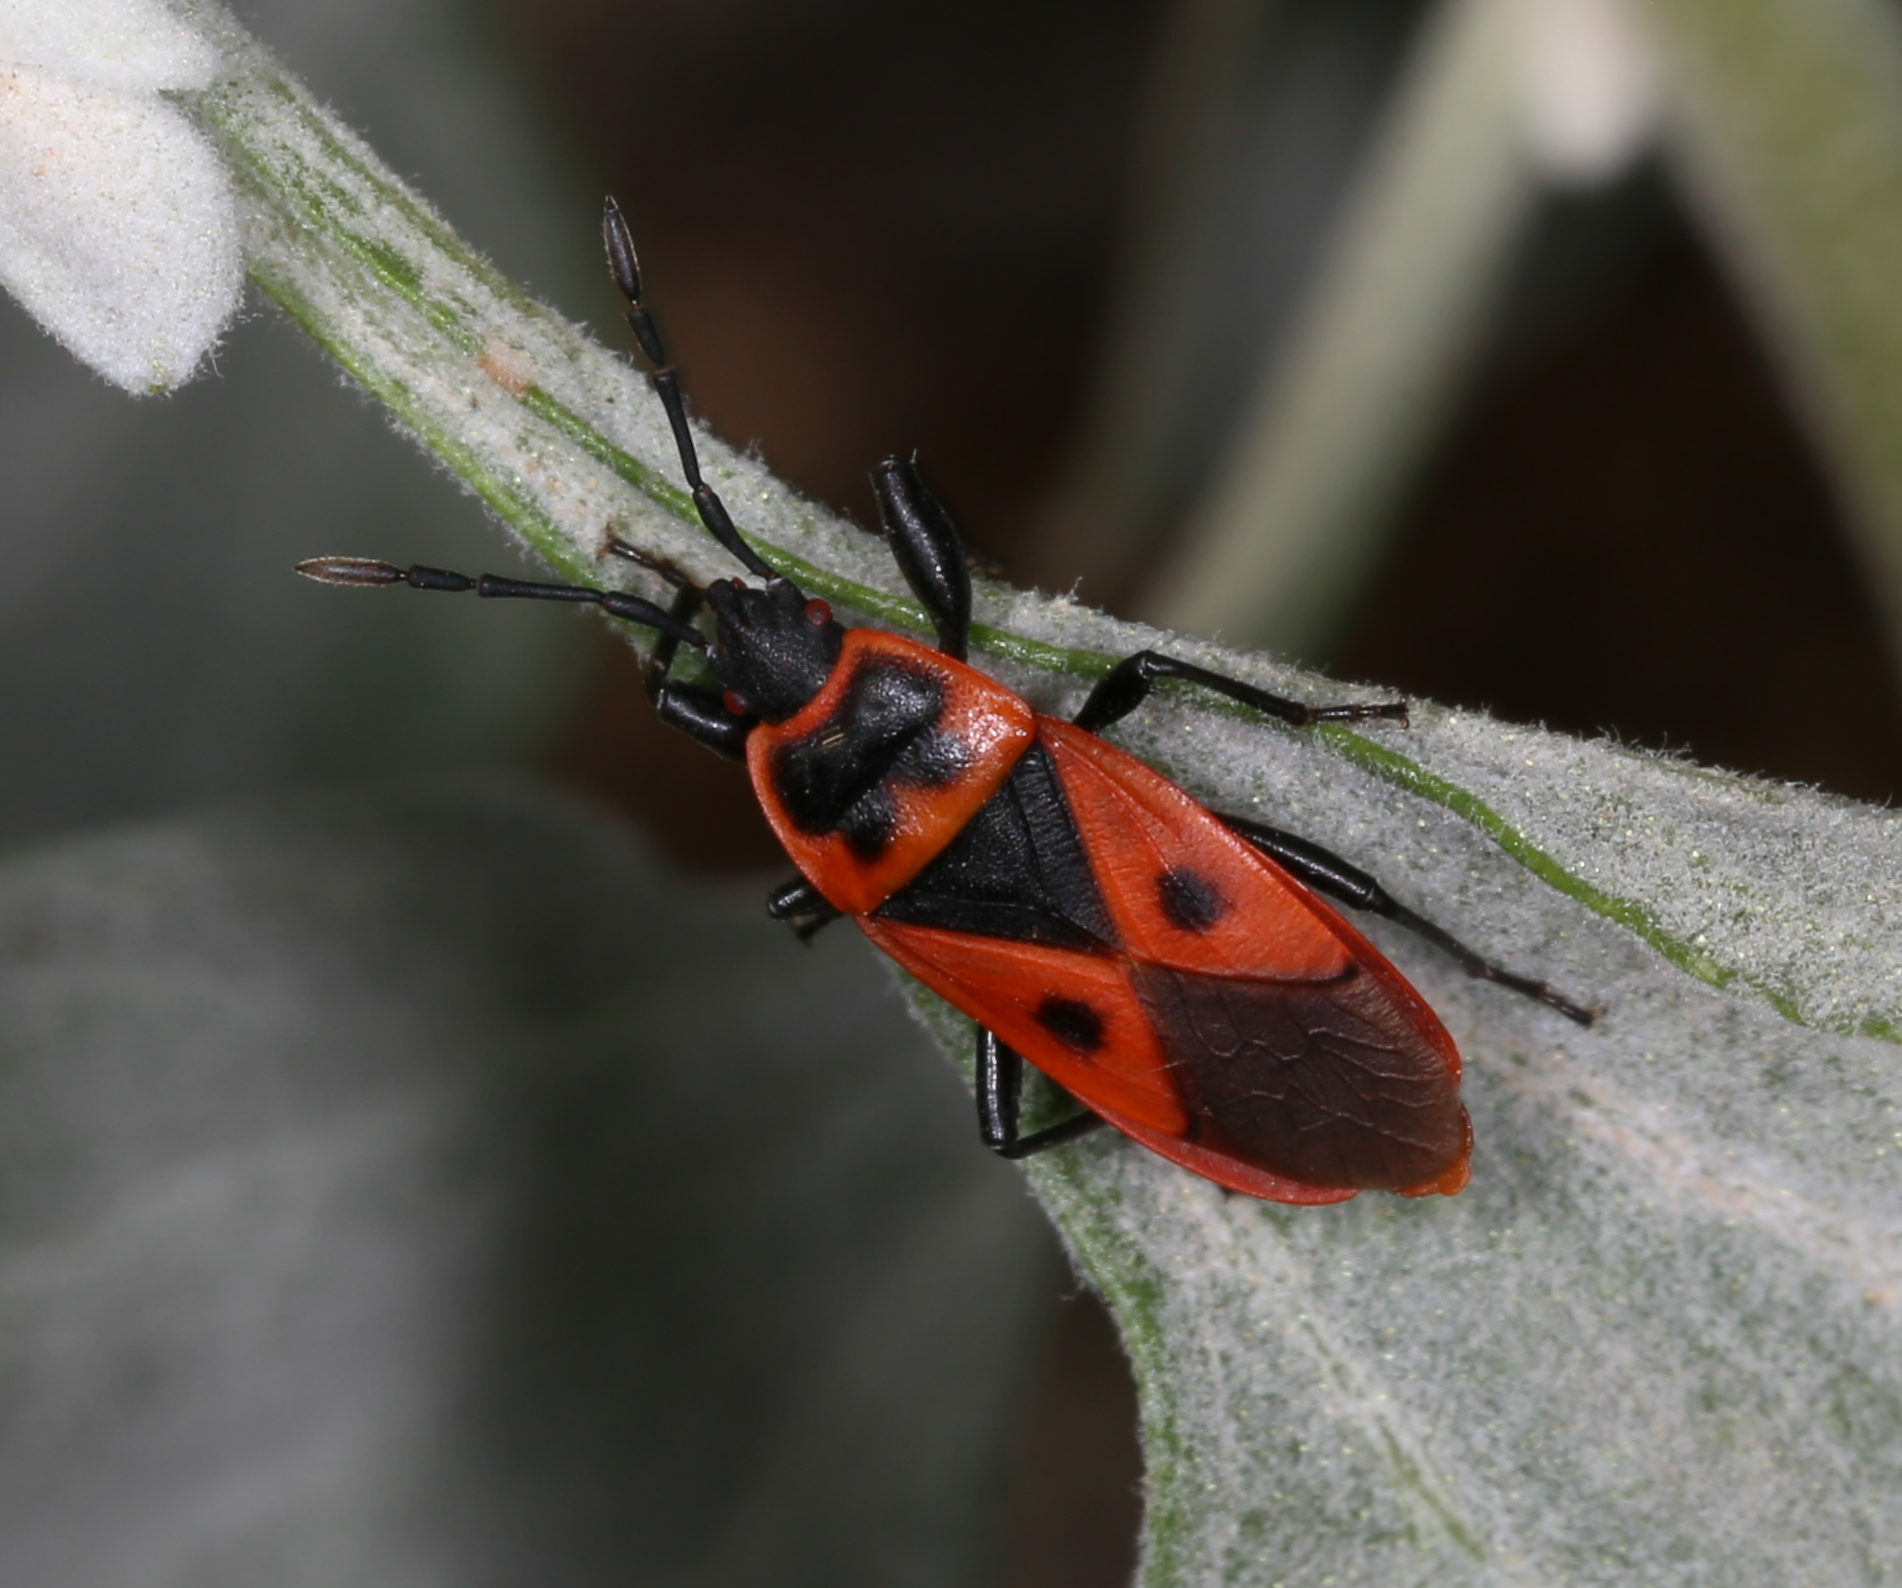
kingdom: Animalia
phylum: Arthropoda
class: Insecta
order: Hemiptera
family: Pyrrhocoridae
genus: Scantius
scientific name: Scantius aegyptius
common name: Red bug
